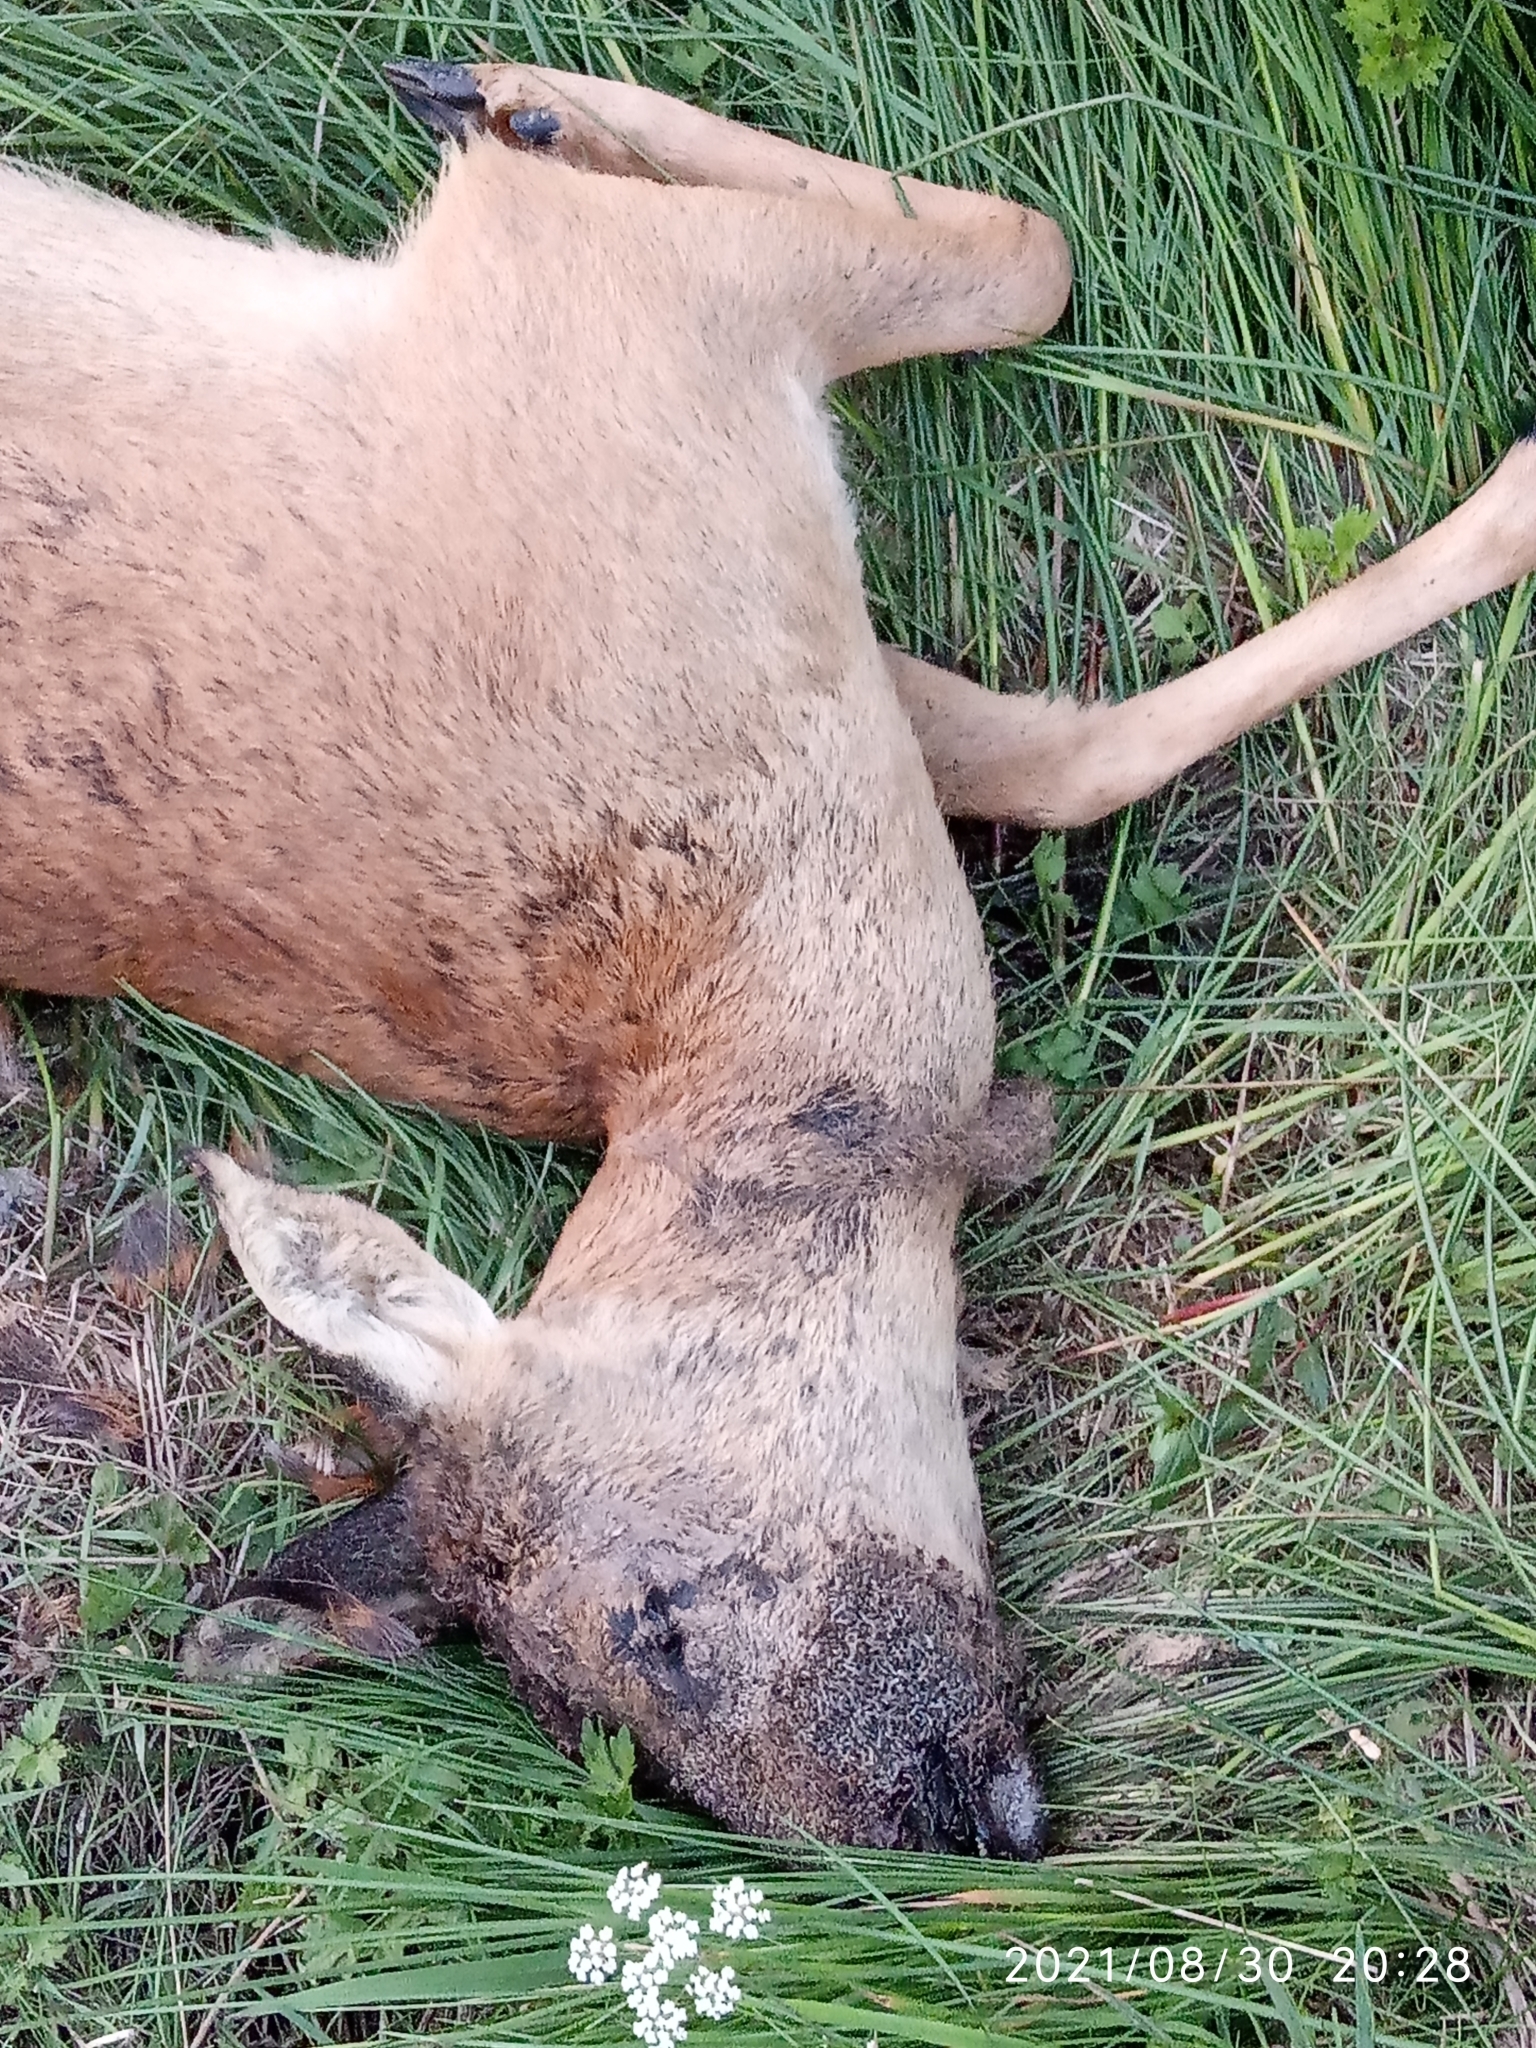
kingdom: Animalia
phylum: Chordata
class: Mammalia
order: Artiodactyla
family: Cervidae
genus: Capreolus
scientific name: Capreolus capreolus
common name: Western roe deer
